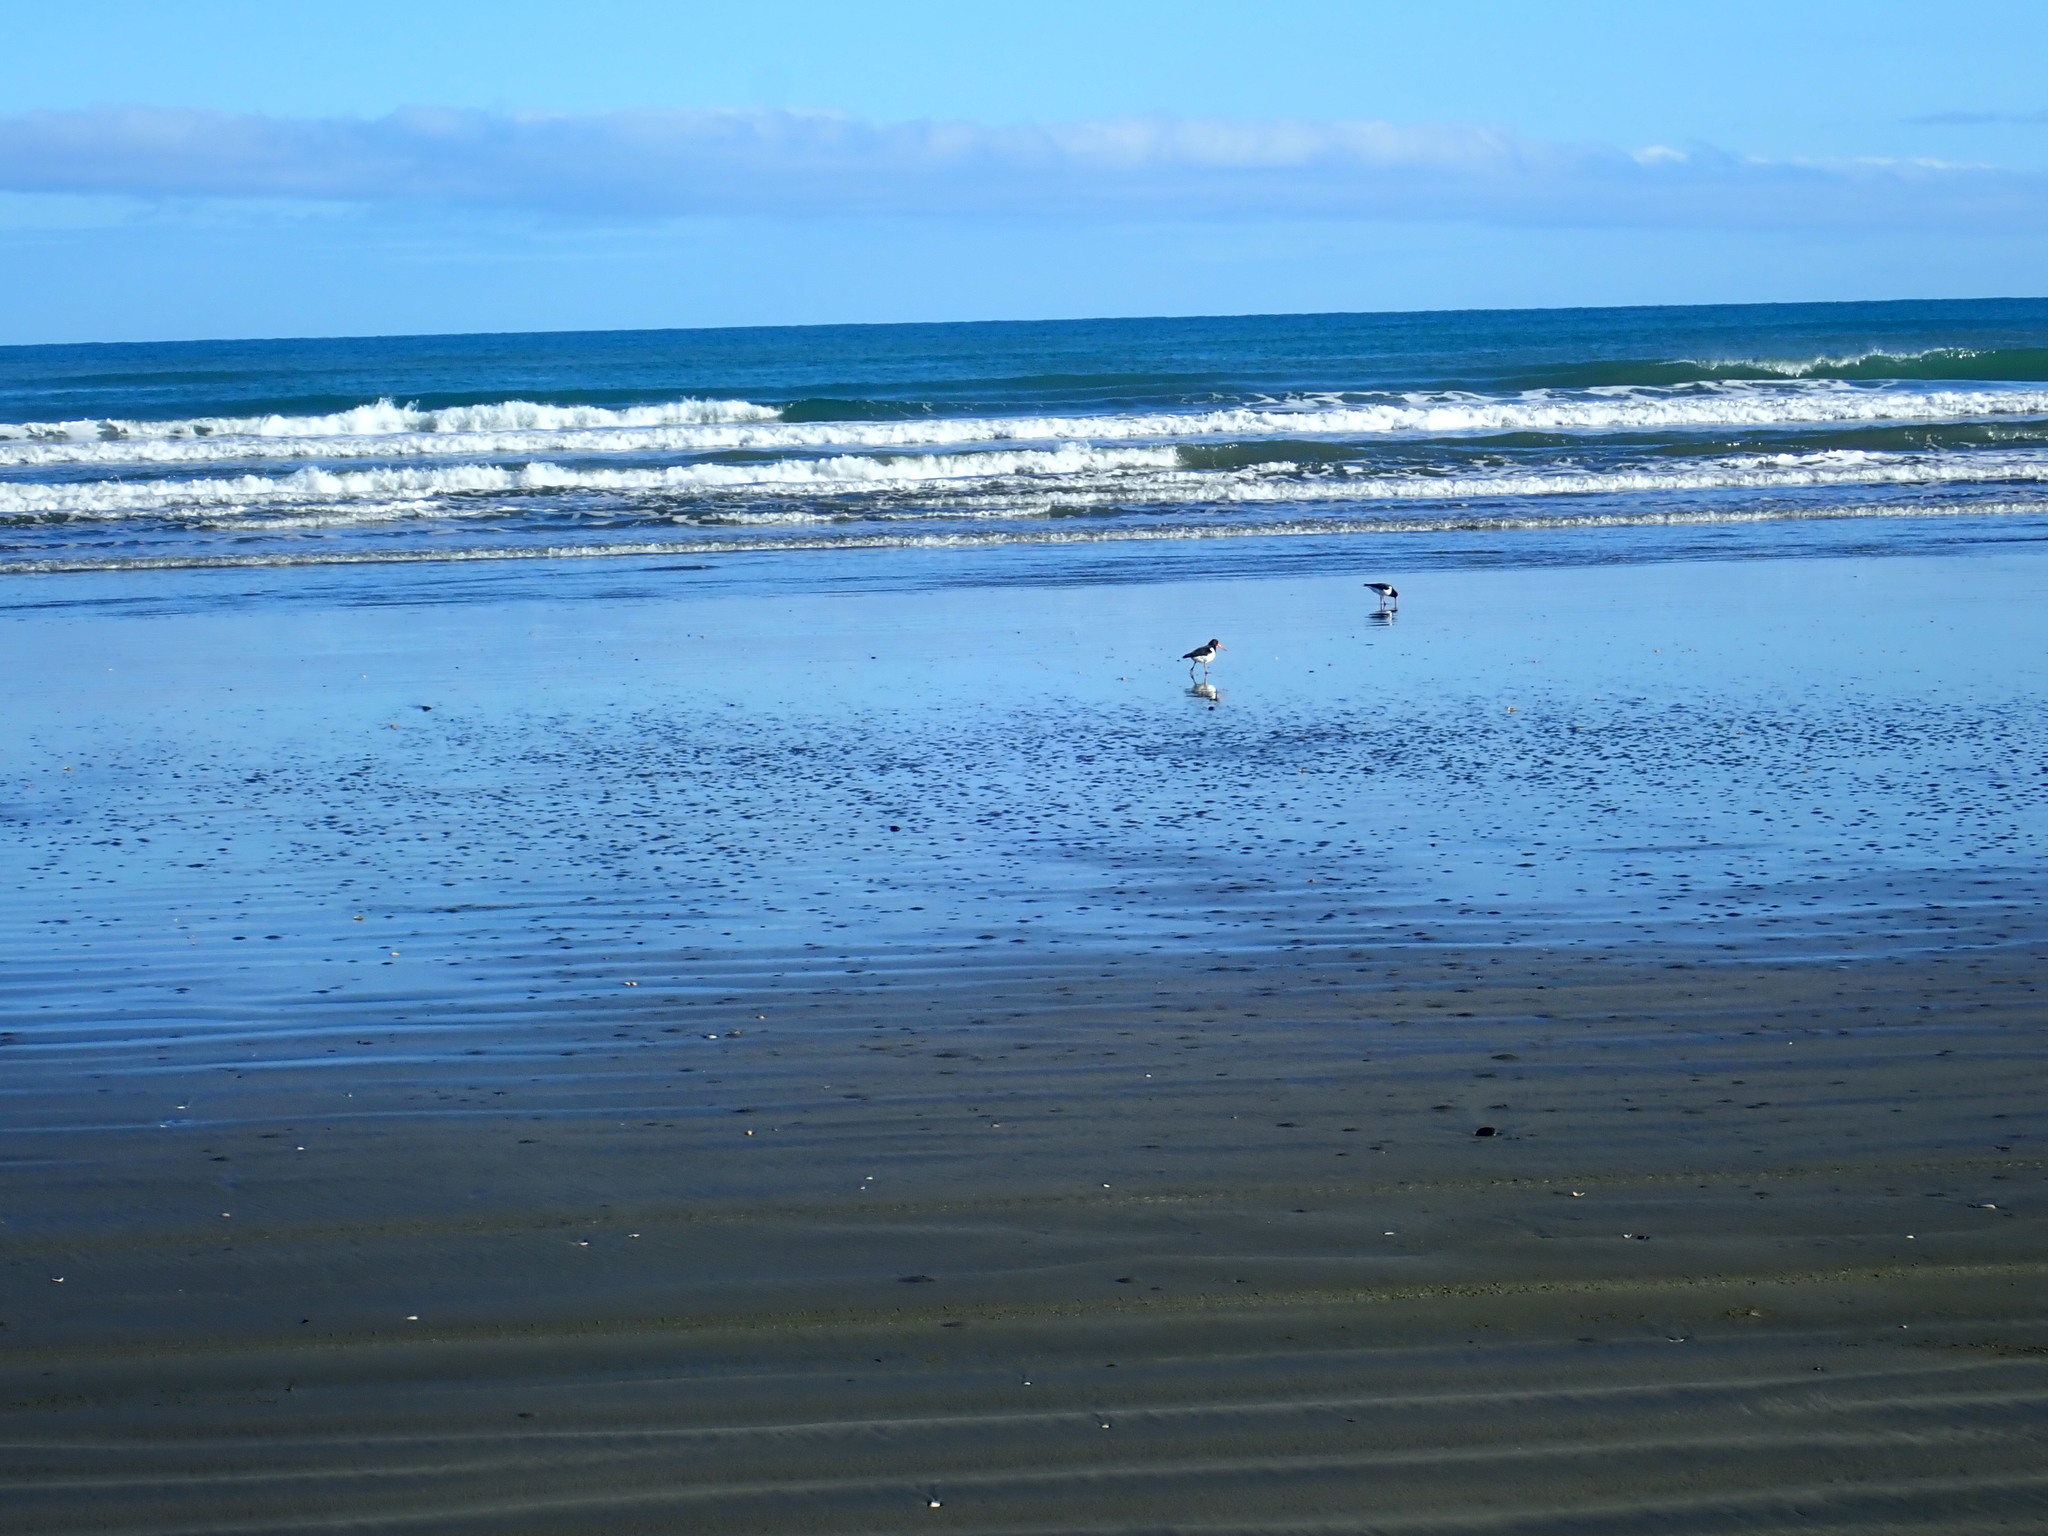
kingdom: Animalia
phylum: Chordata
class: Aves
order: Charadriiformes
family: Haematopodidae
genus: Haematopus
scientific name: Haematopus finschi
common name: South island oystercatcher
